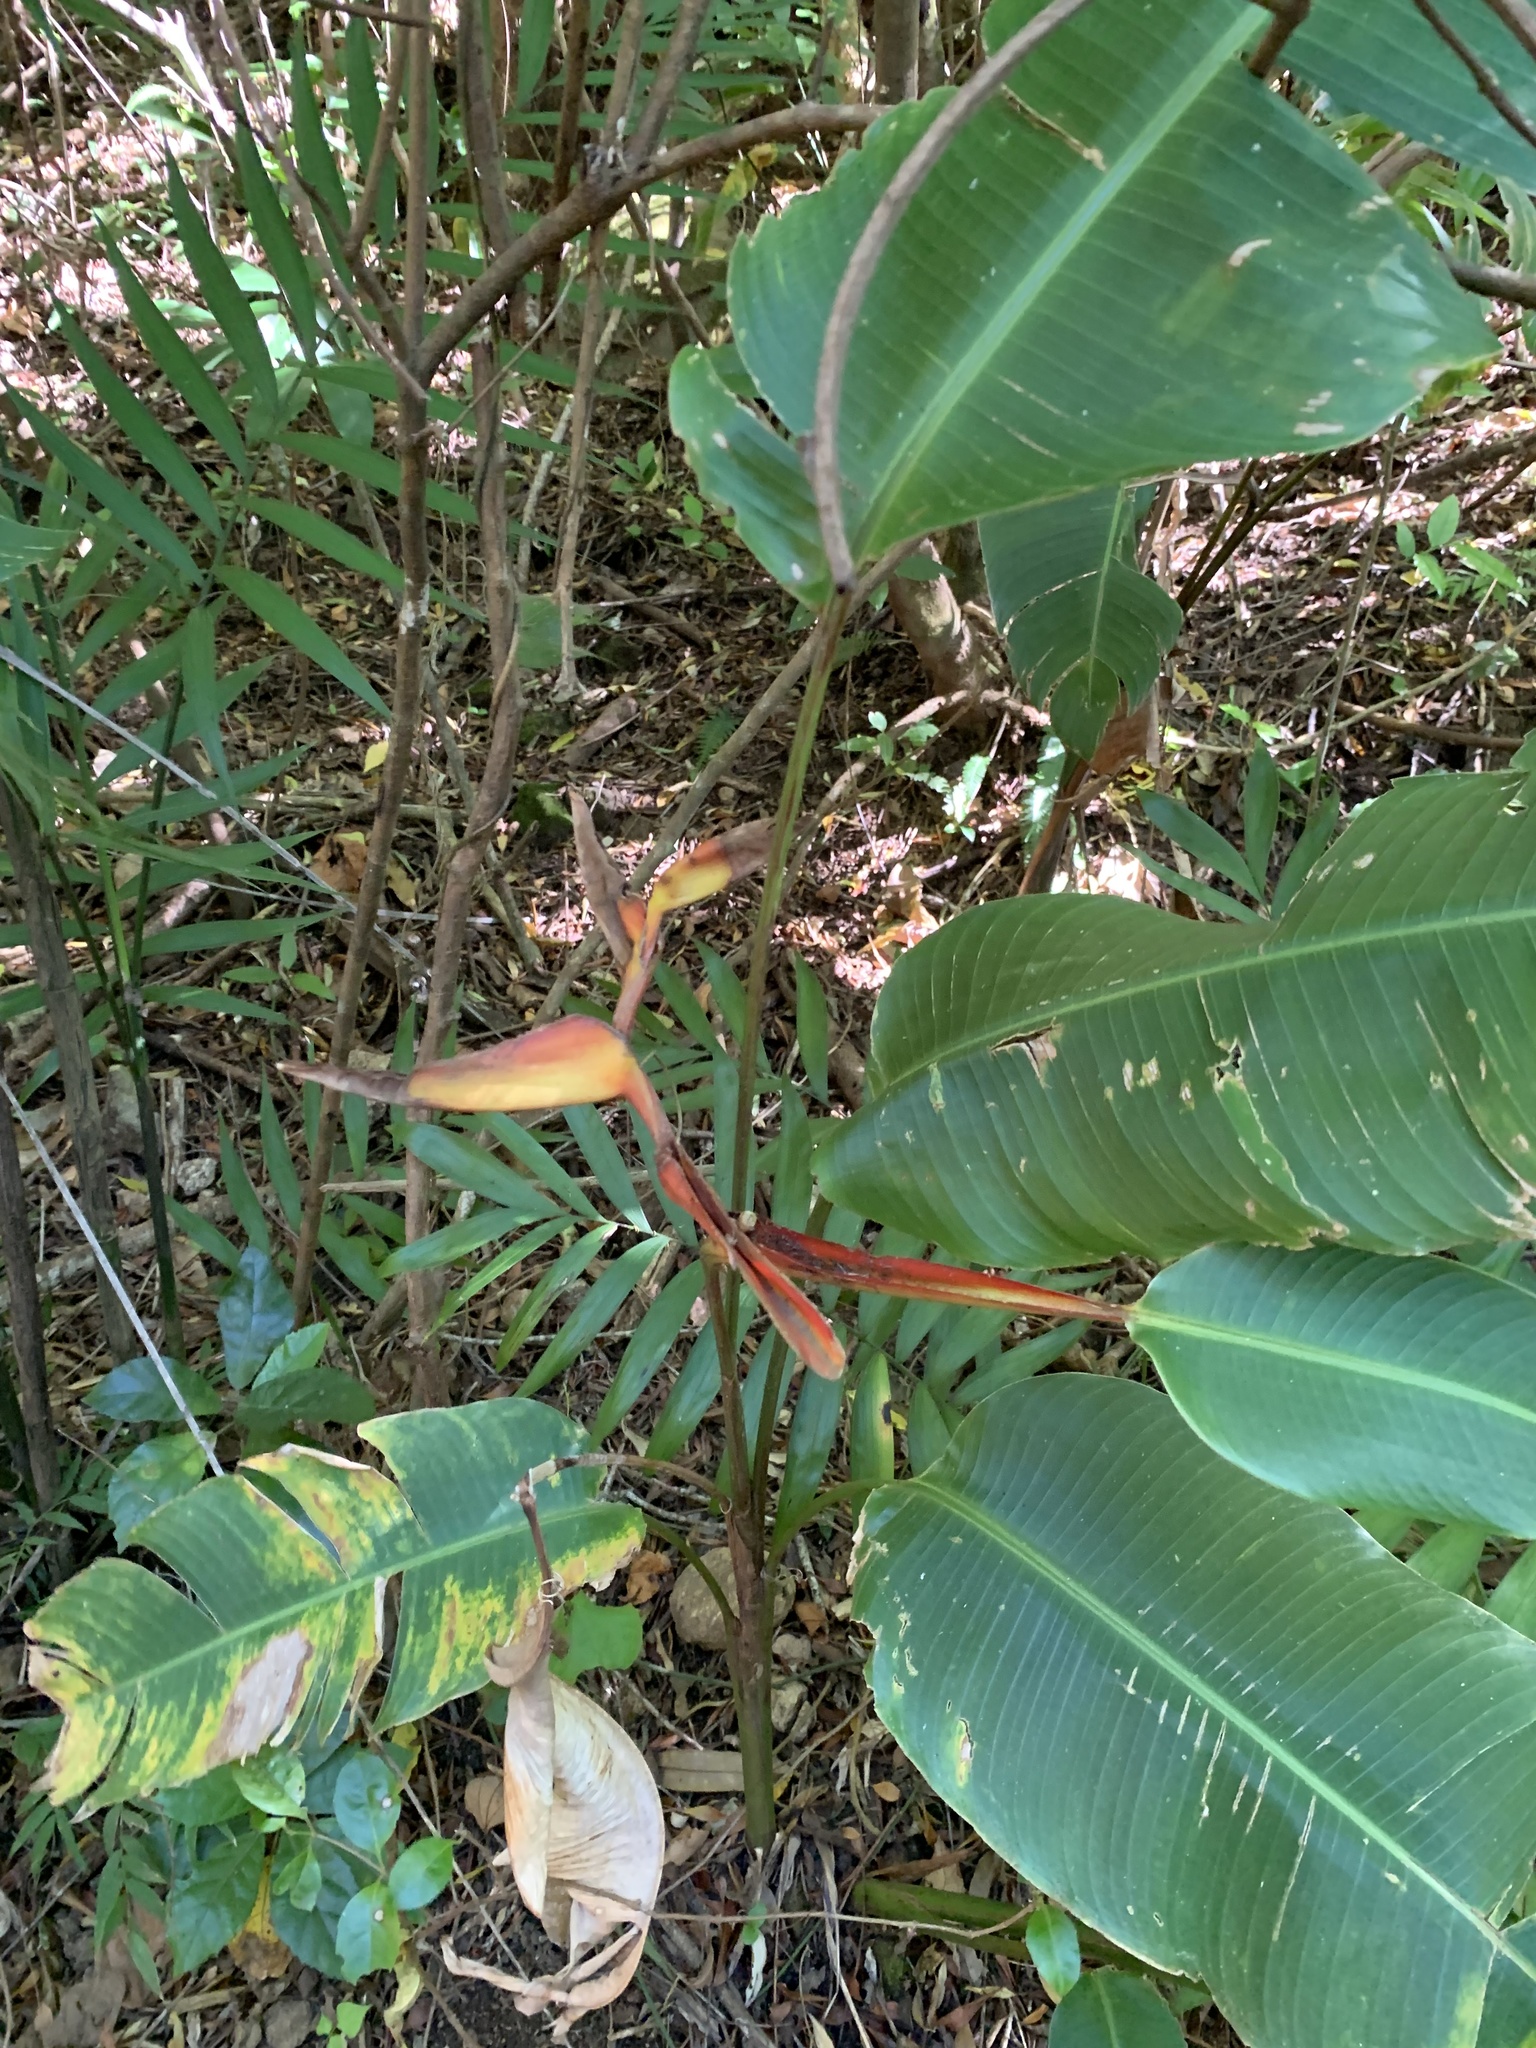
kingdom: Plantae
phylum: Tracheophyta
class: Liliopsida
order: Zingiberales
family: Heliconiaceae
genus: Heliconia
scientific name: Heliconia latispatha
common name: Expanded lobsterclaw
